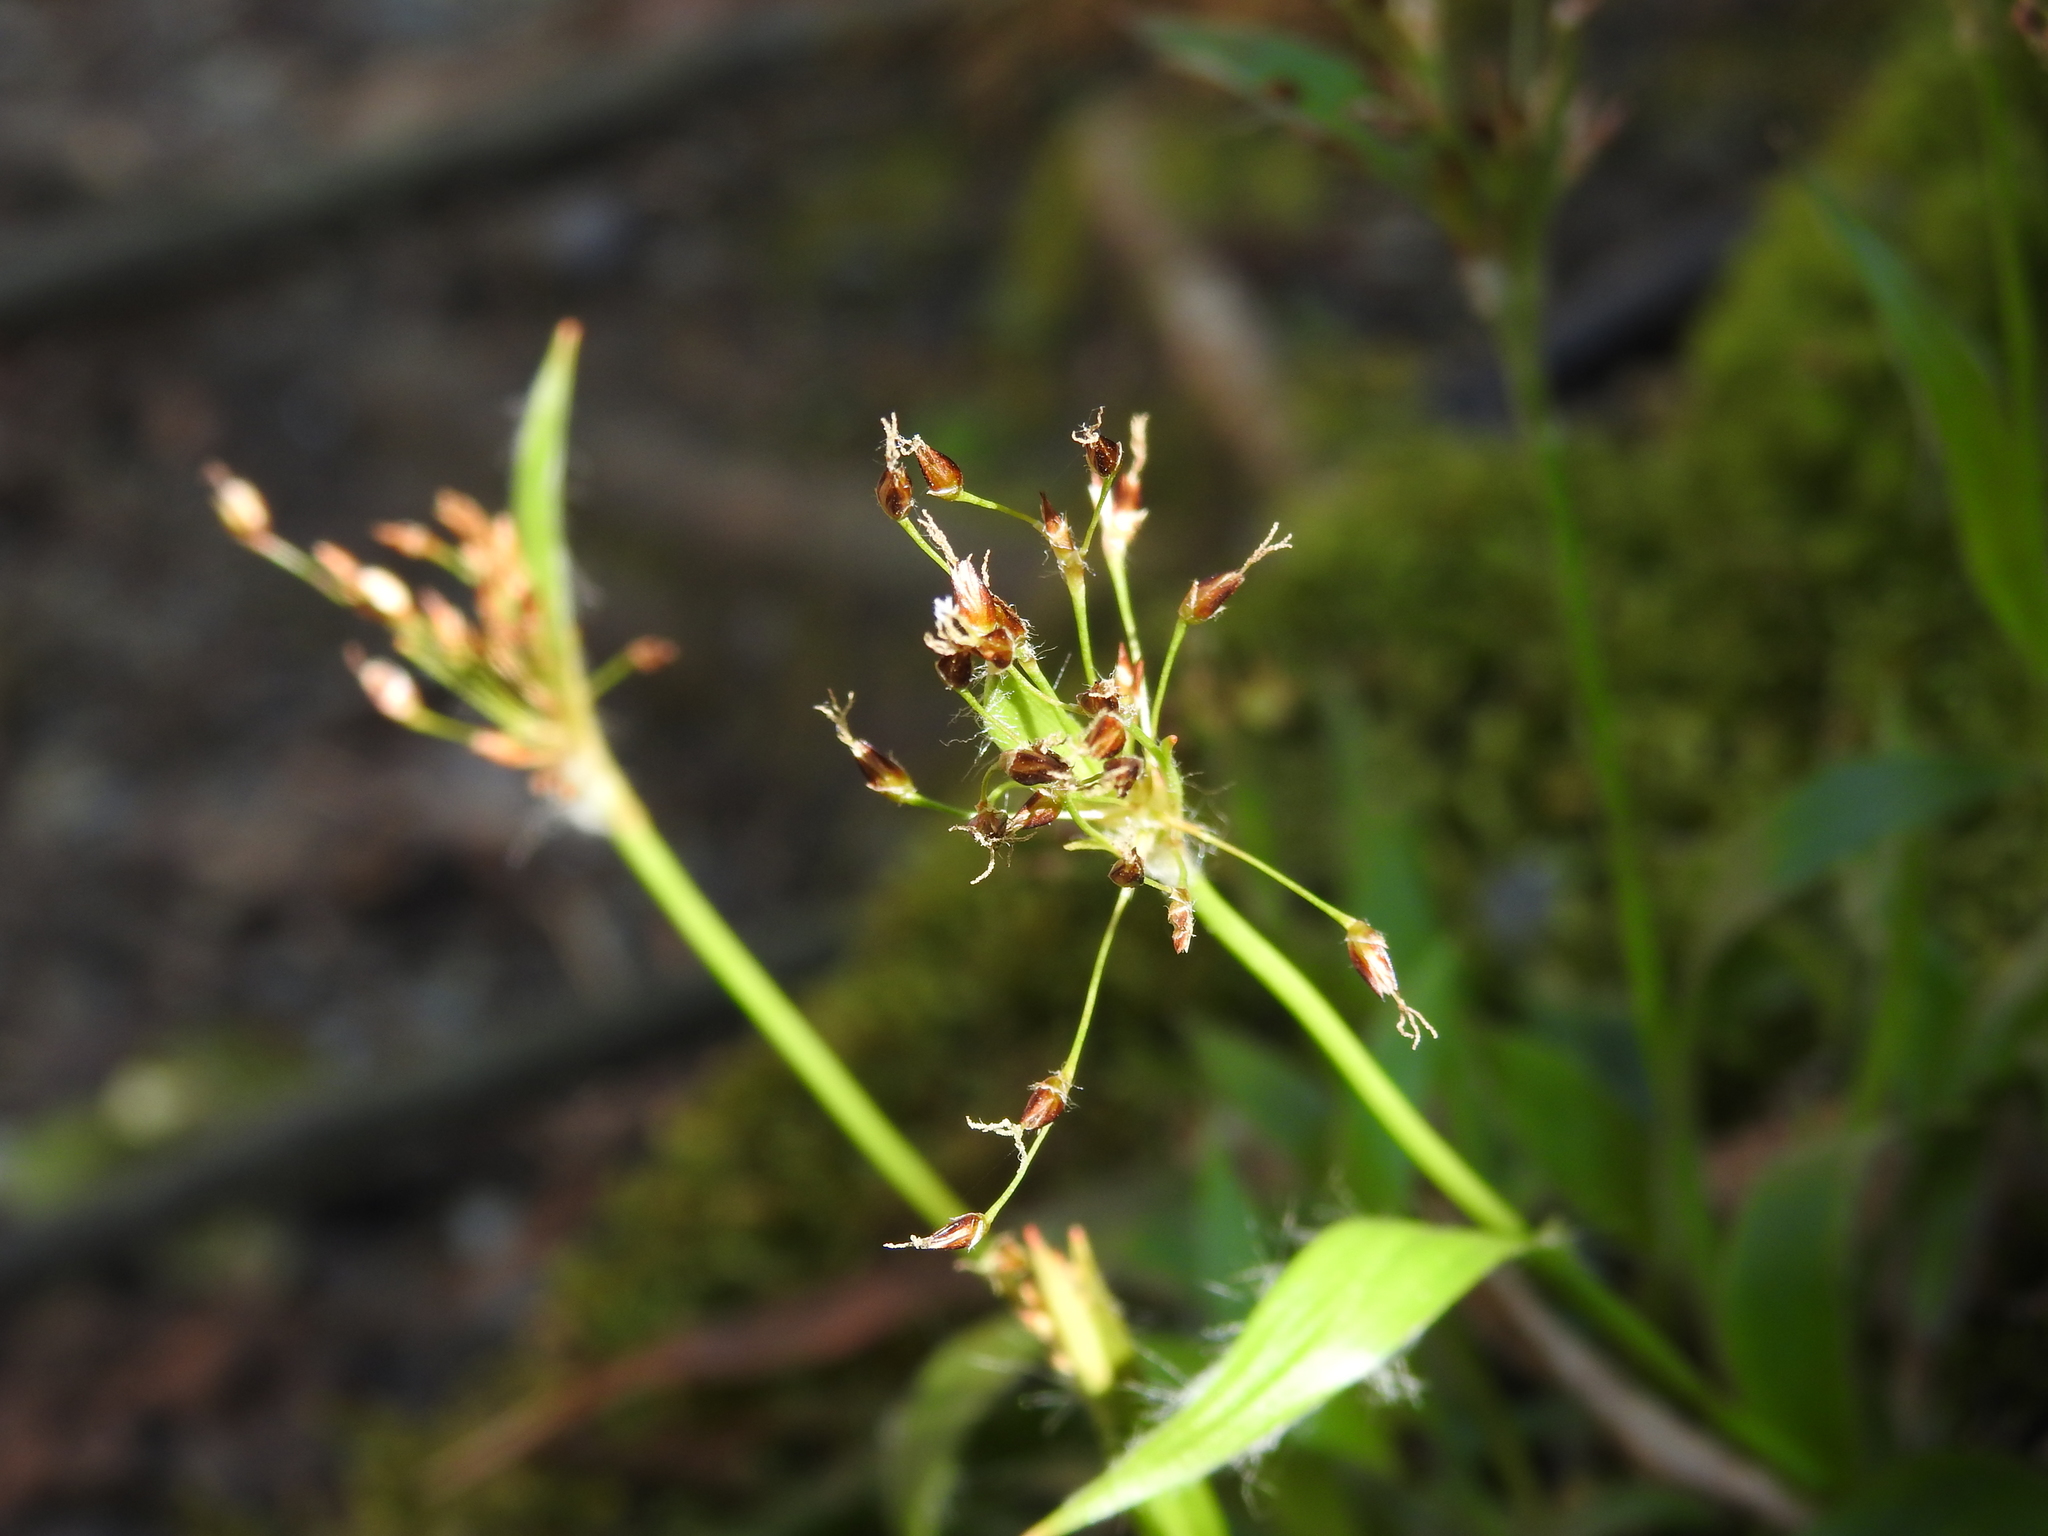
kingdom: Plantae
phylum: Tracheophyta
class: Liliopsida
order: Poales
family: Juncaceae
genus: Luzula
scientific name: Luzula acuminata
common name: Hairy woodrush
